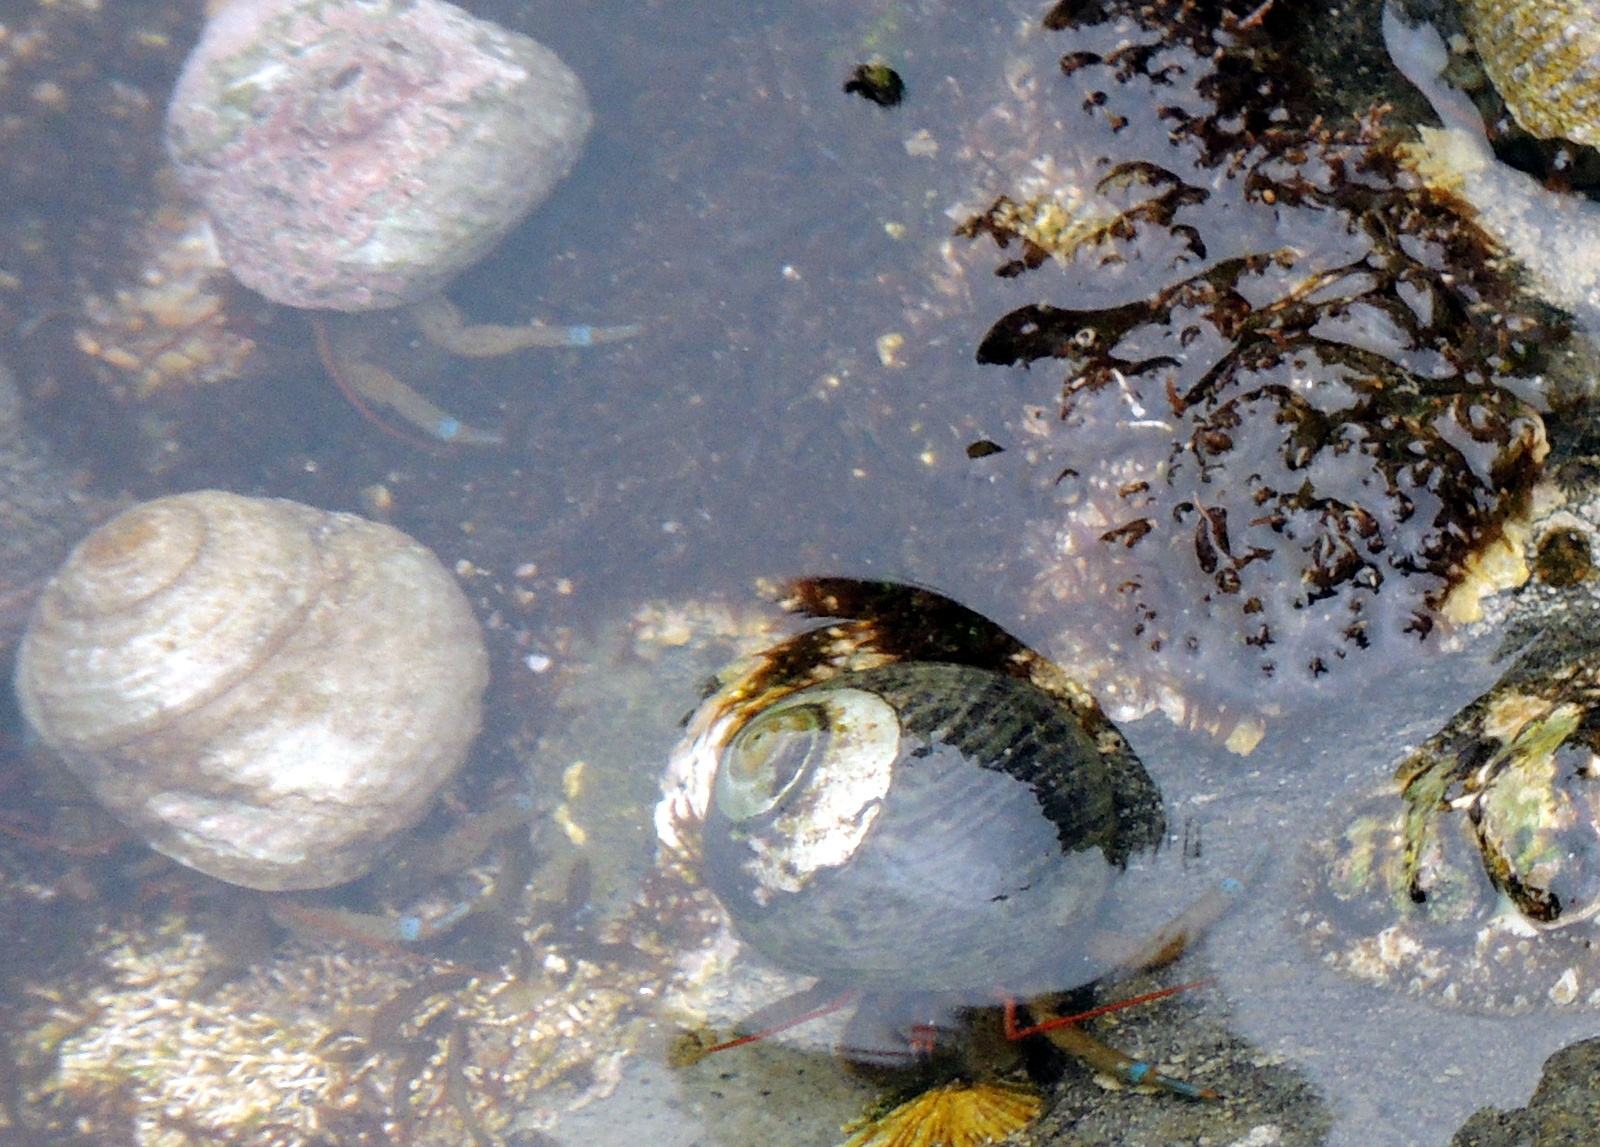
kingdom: Animalia
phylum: Arthropoda
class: Malacostraca
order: Decapoda
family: Paguridae
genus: Pagurus
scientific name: Pagurus samuelis
